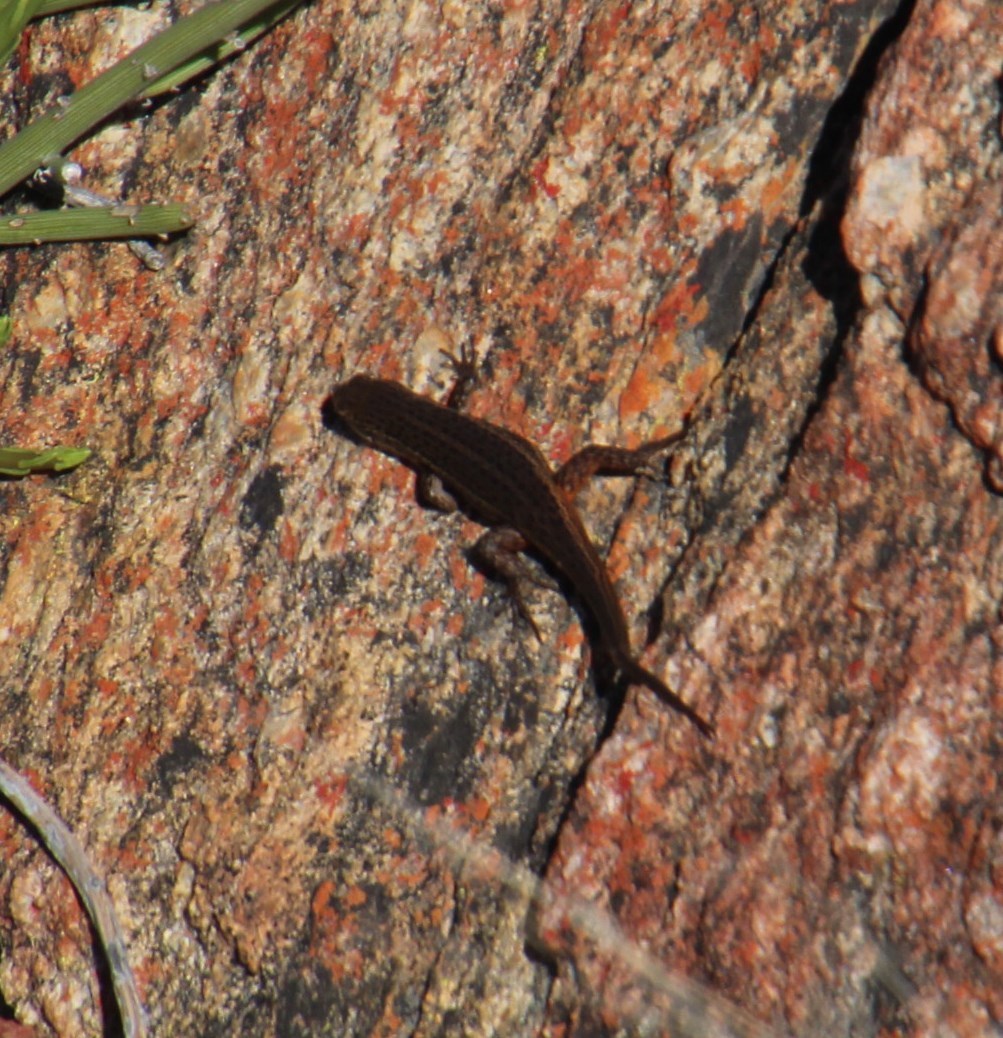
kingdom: Animalia
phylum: Chordata
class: Squamata
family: Scincidae
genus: Trachylepis
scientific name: Trachylepis variegata
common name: Variegated skink
